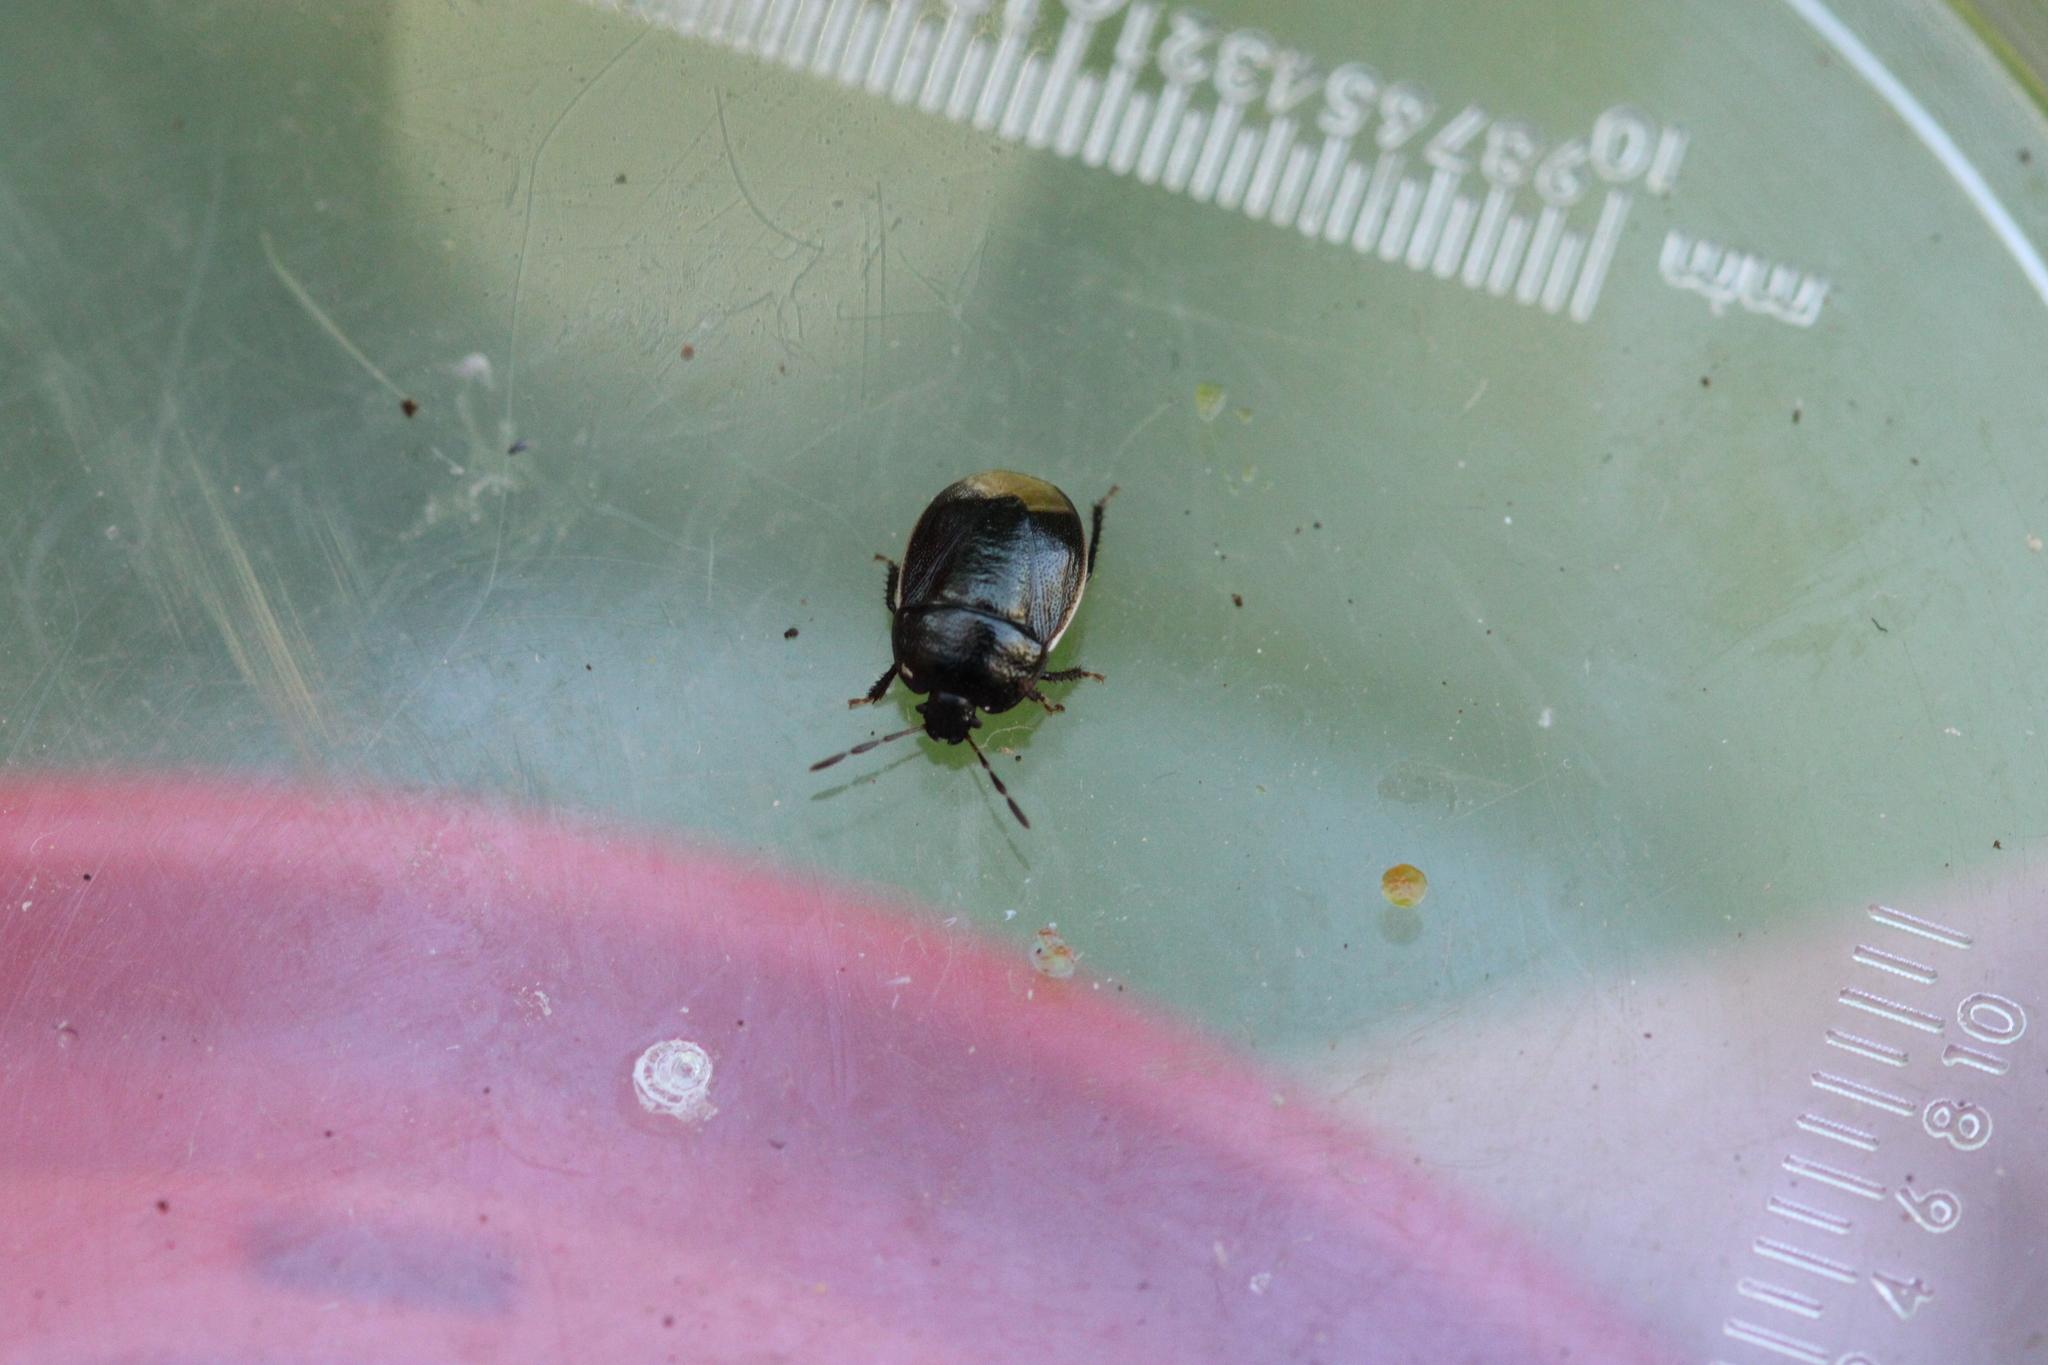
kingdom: Animalia
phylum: Arthropoda
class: Insecta
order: Hemiptera
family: Cydnidae
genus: Legnotus
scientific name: Legnotus limbosus
